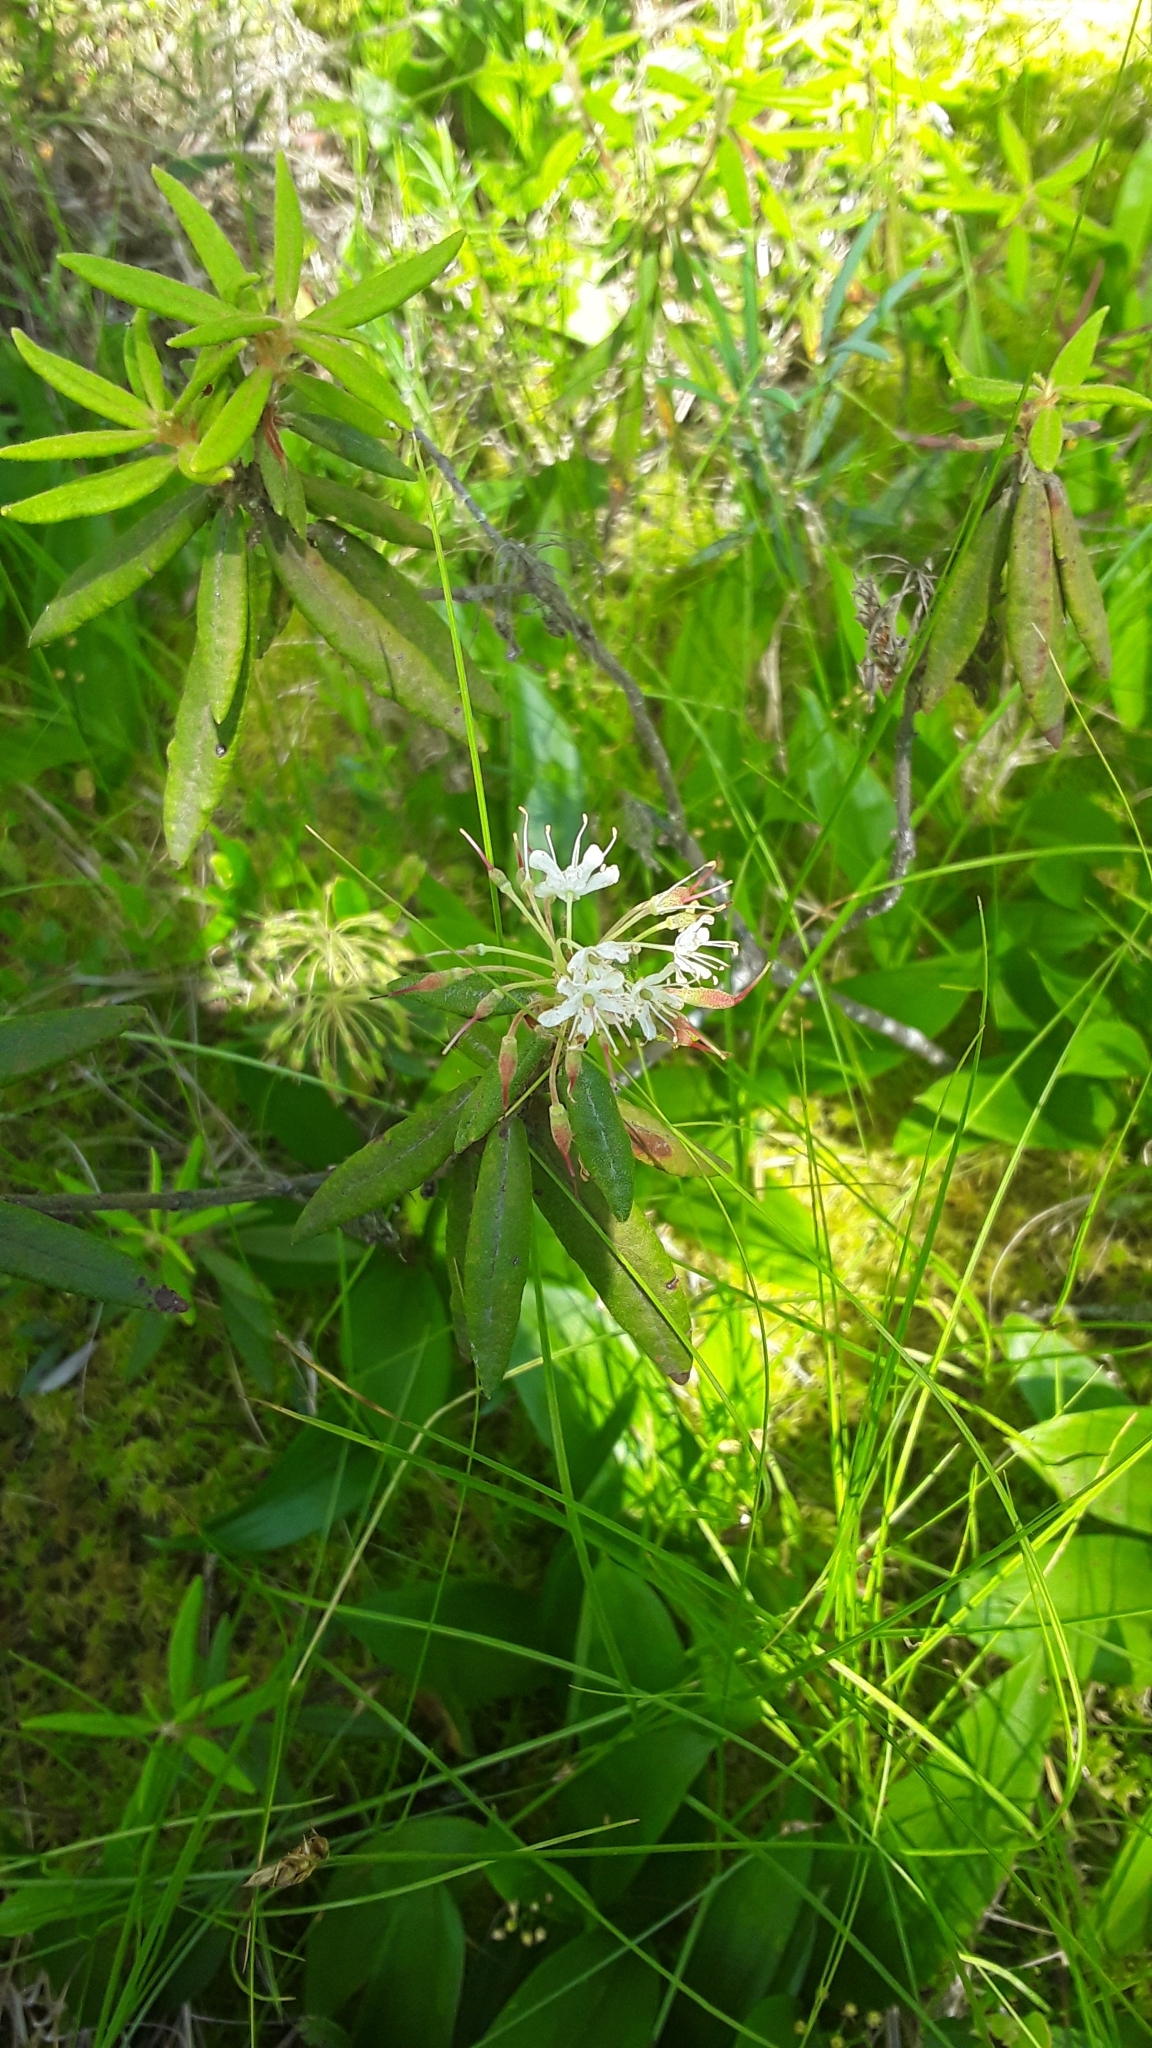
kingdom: Plantae
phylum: Tracheophyta
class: Magnoliopsida
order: Ericales
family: Ericaceae
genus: Rhododendron
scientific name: Rhododendron groenlandicum
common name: Bog labrador tea
